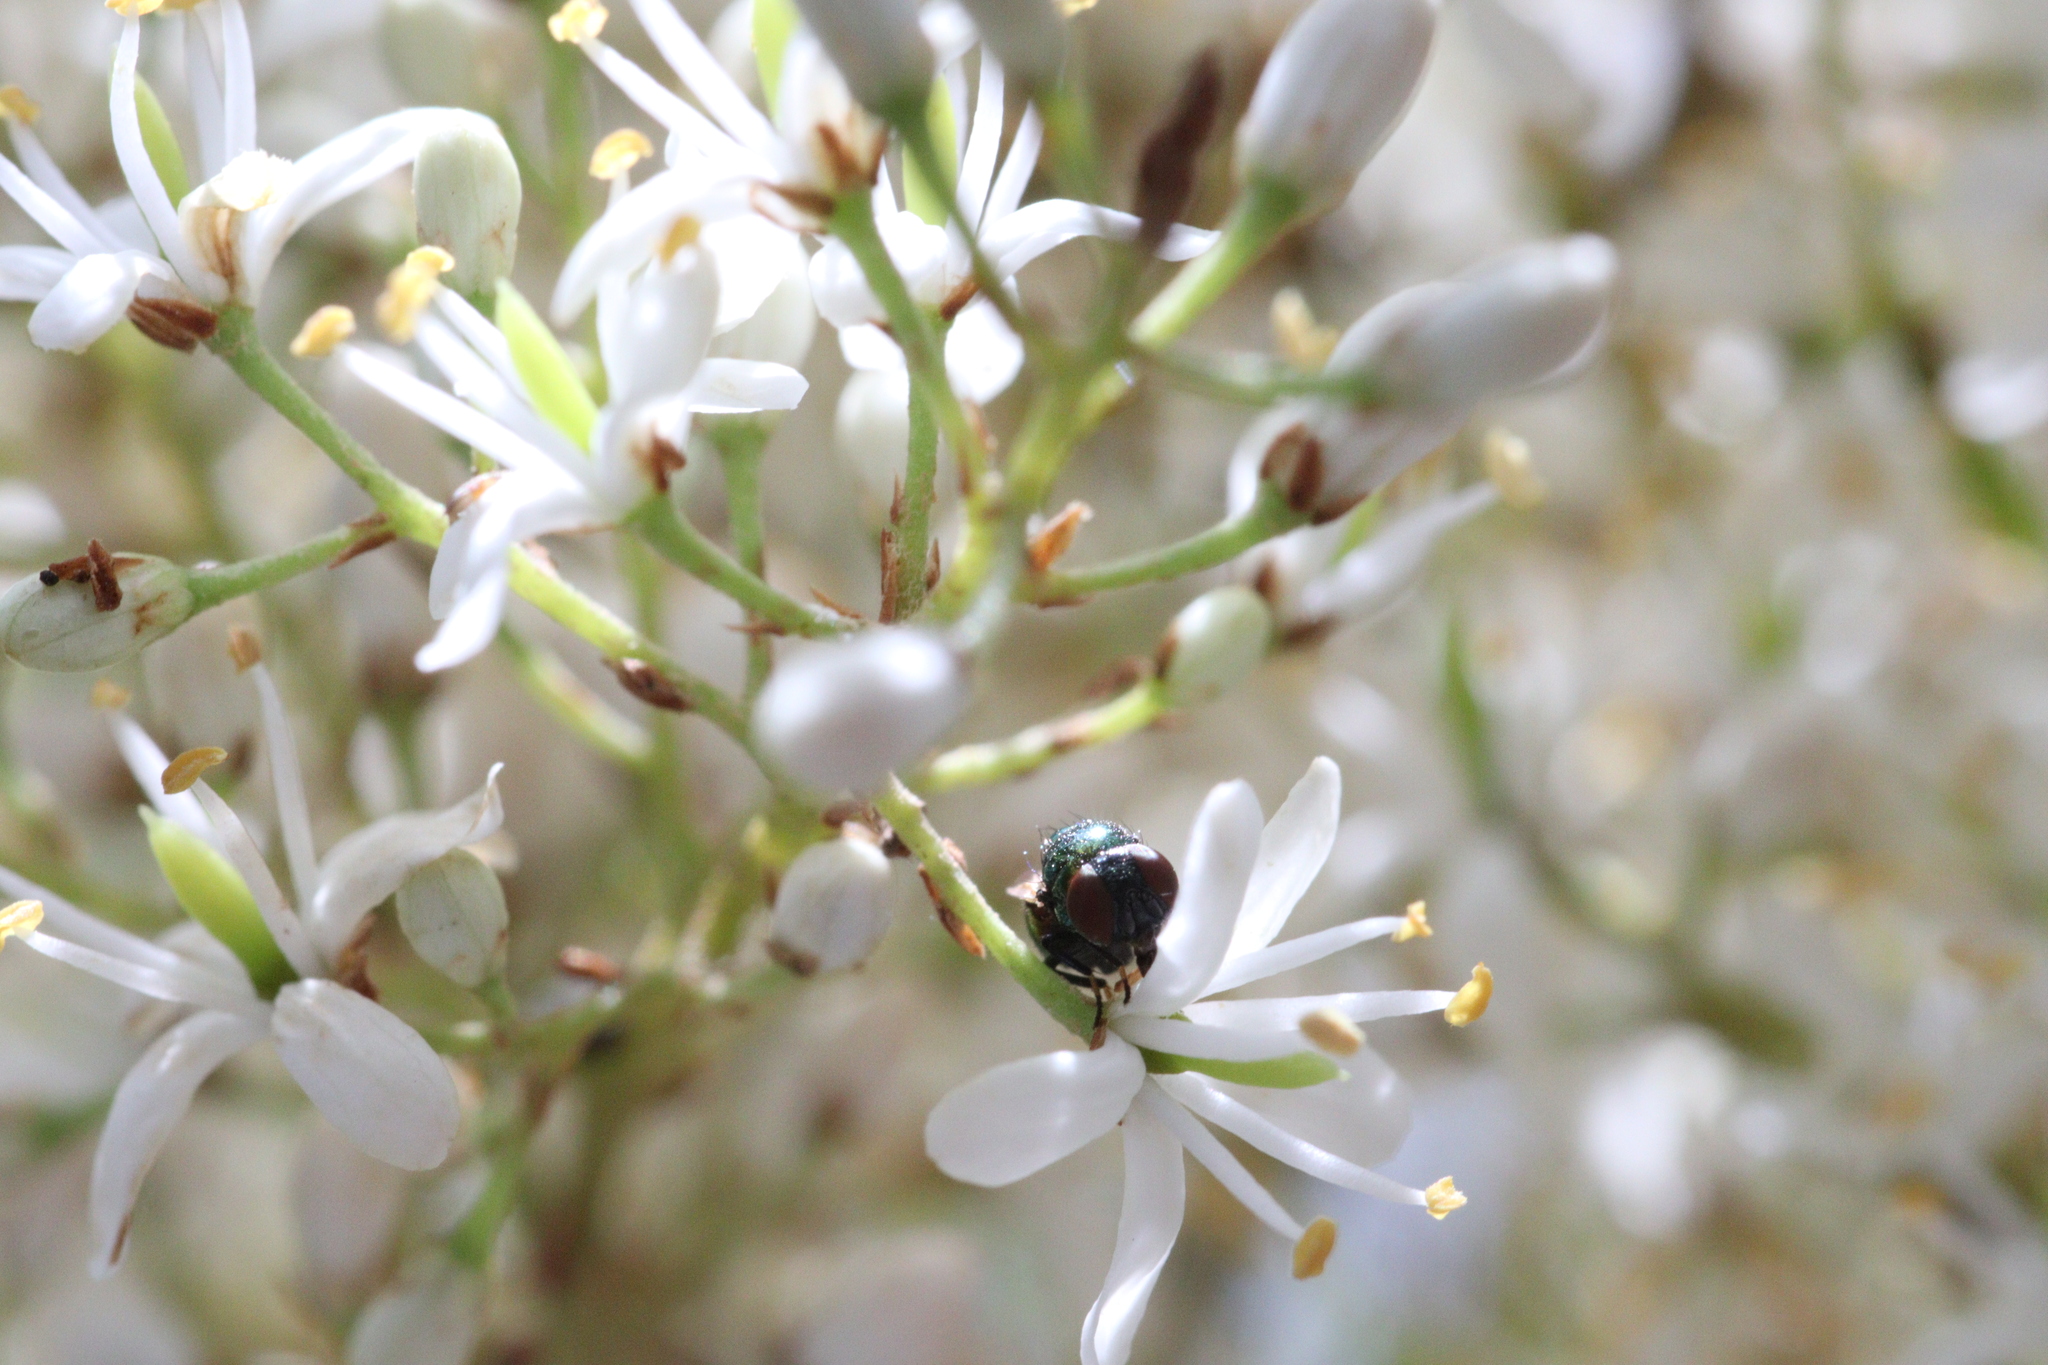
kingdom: Plantae
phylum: Tracheophyta
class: Magnoliopsida
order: Apiales
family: Pittosporaceae
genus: Bursaria
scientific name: Bursaria spinosa
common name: Australian blackthorn
